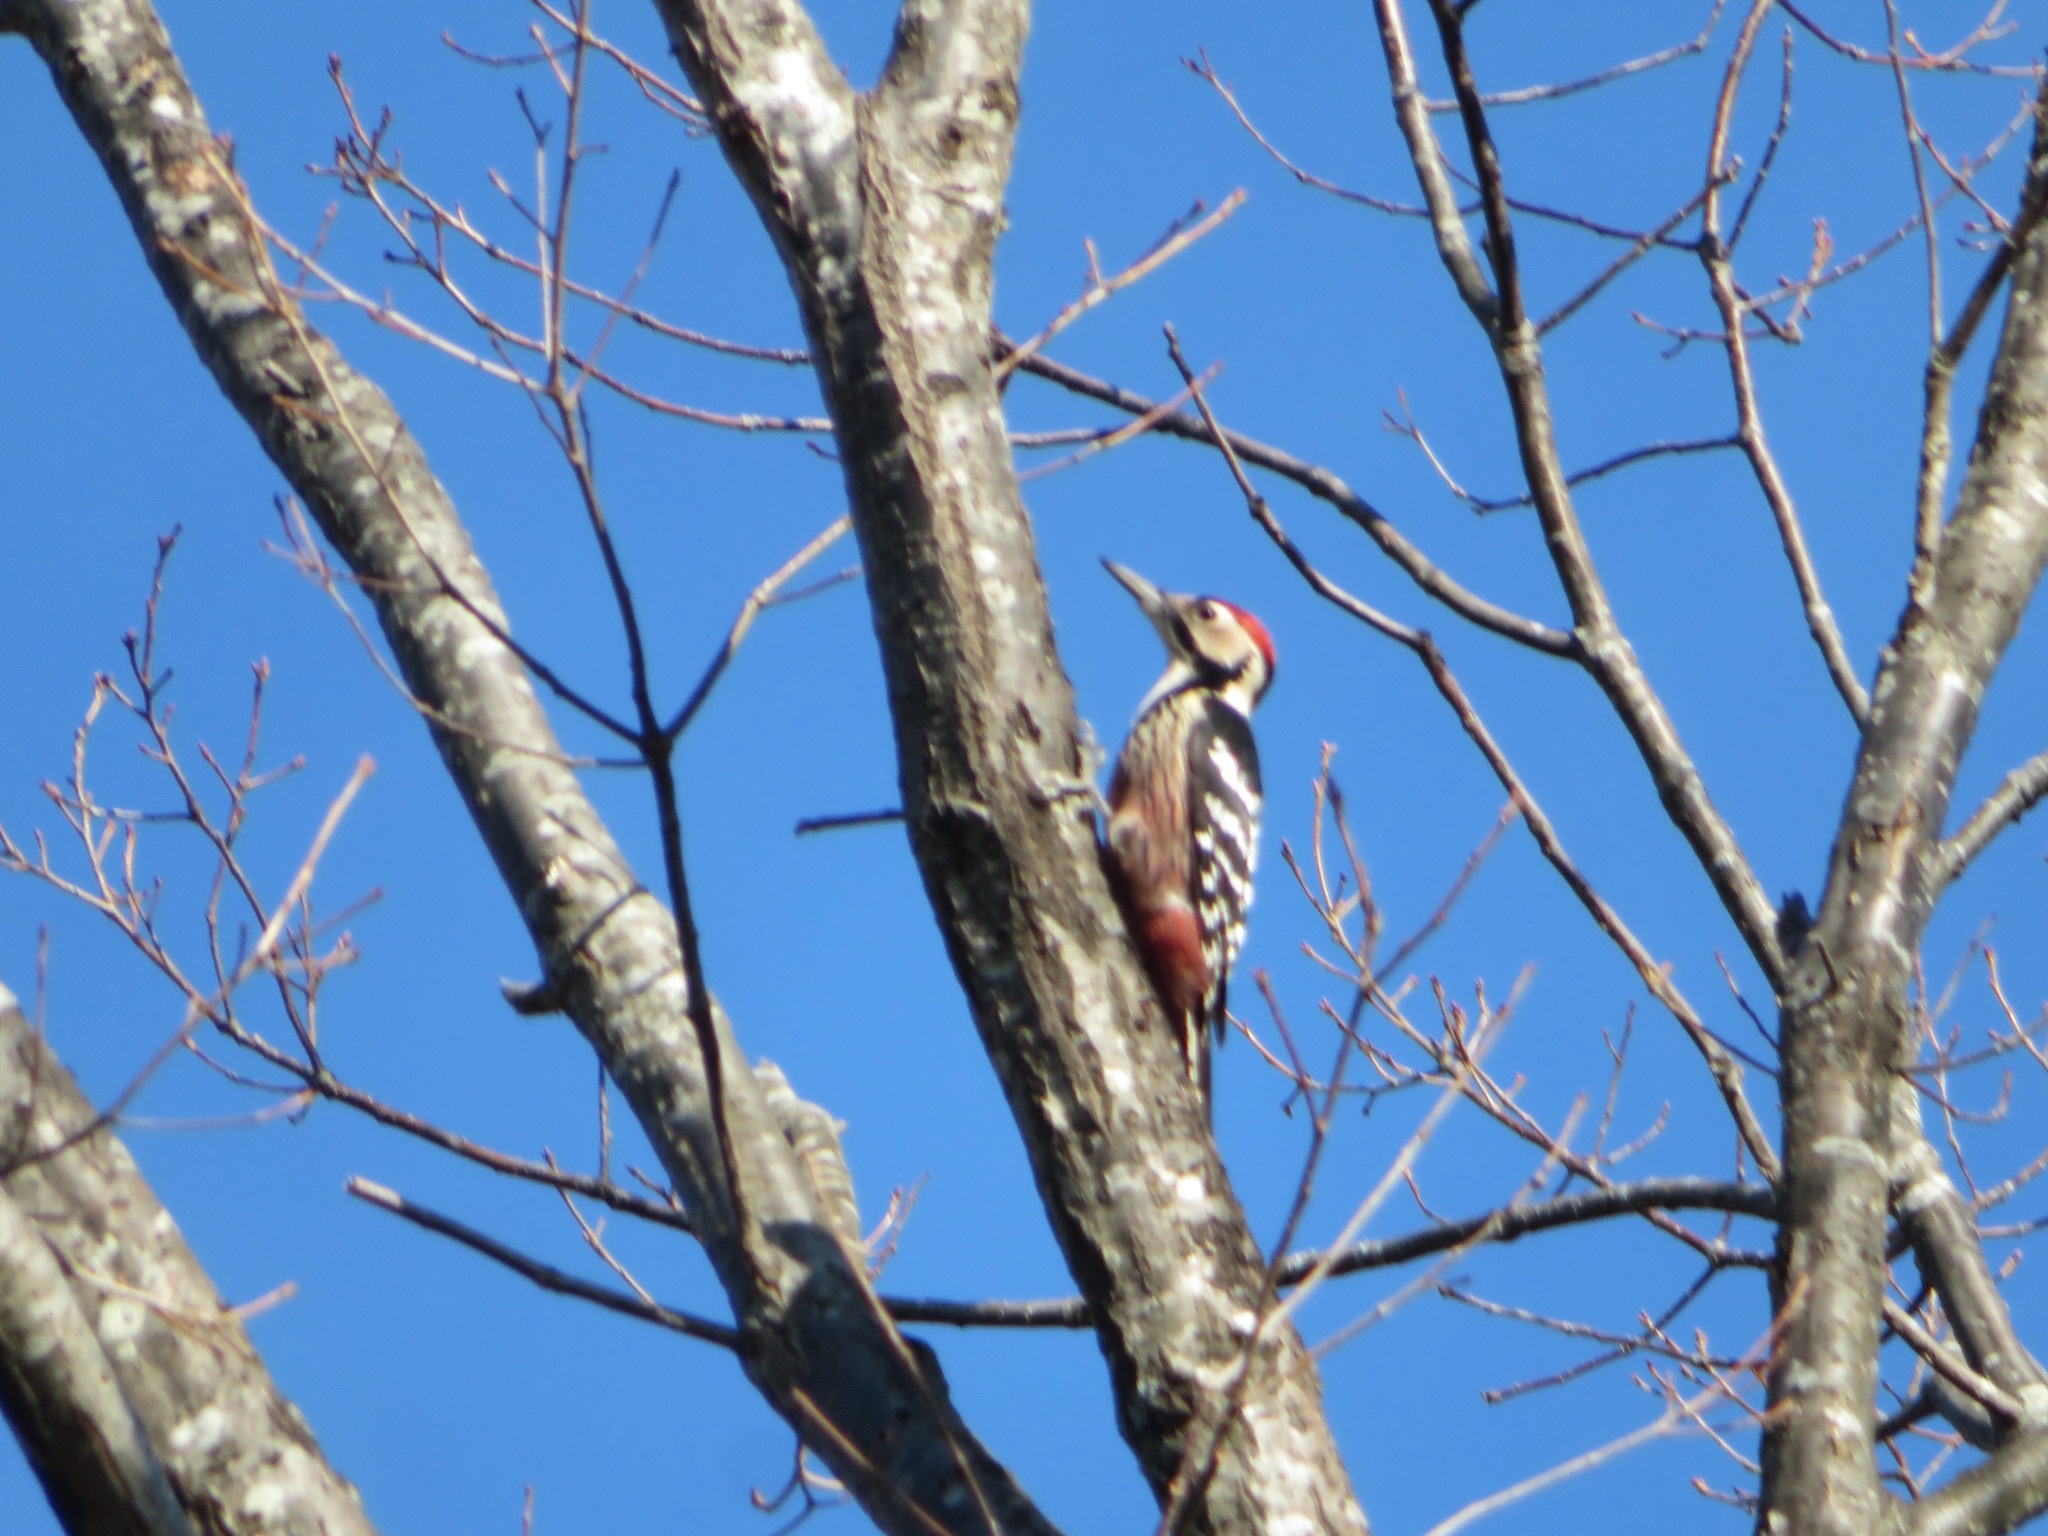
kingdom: Animalia
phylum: Chordata
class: Aves
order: Piciformes
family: Picidae
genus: Dendrocopos
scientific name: Dendrocopos leucotos
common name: White-backed woodpecker
